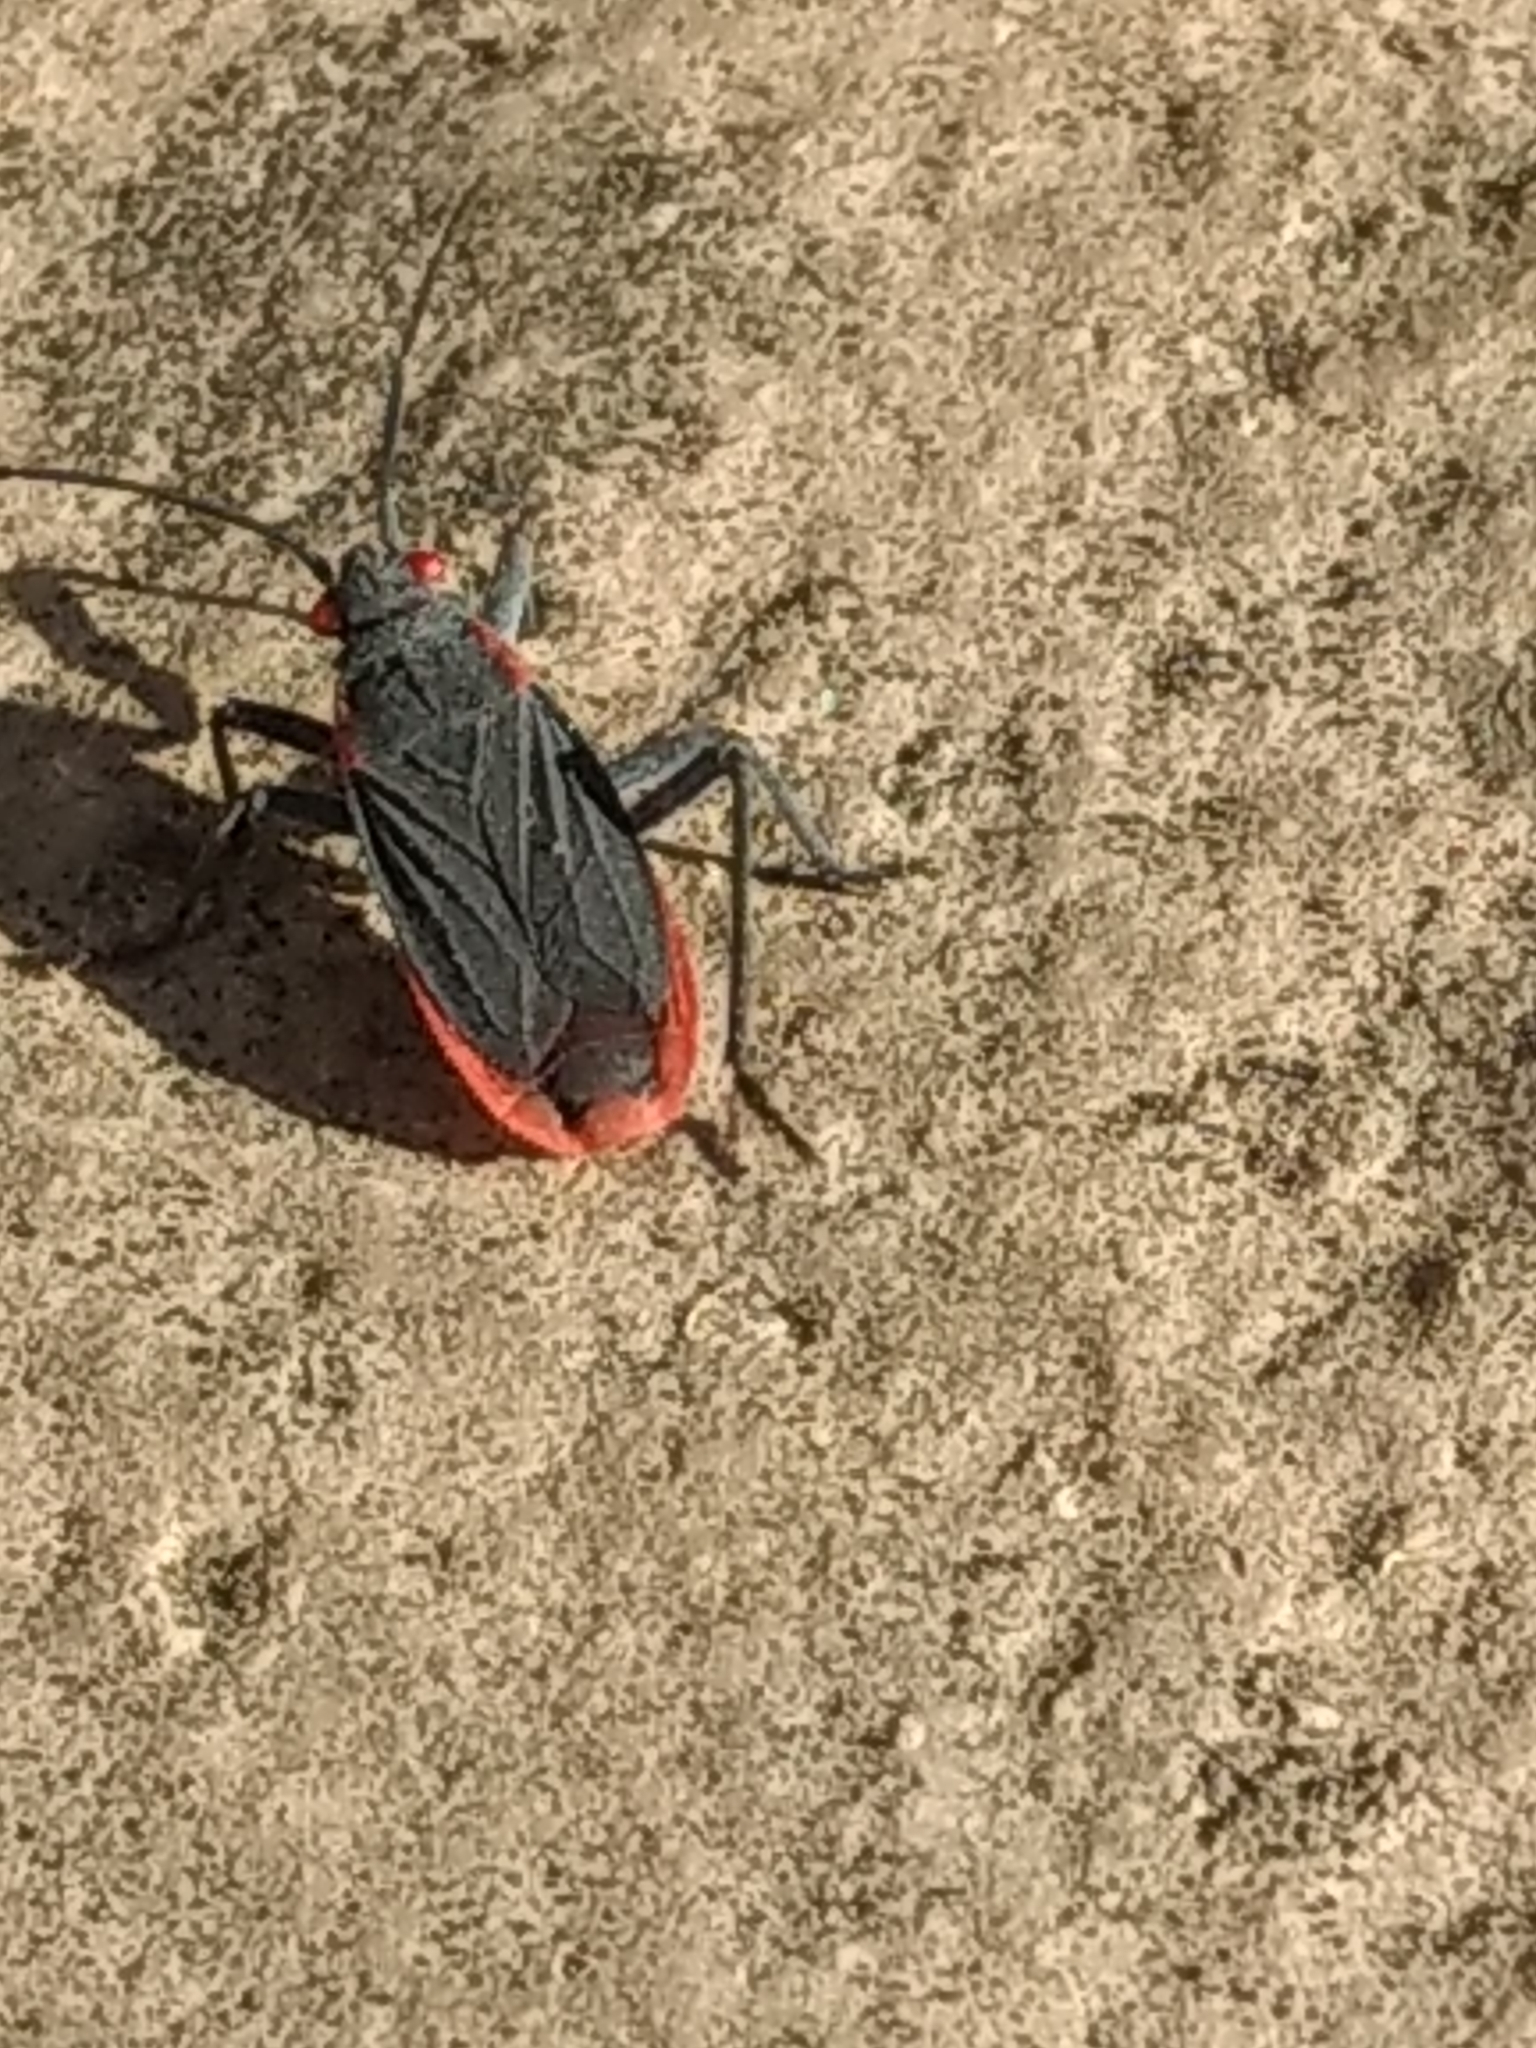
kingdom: Animalia
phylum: Arthropoda
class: Insecta
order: Hemiptera
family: Rhopalidae
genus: Jadera
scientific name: Jadera haematoloma
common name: Red-shouldered bug
